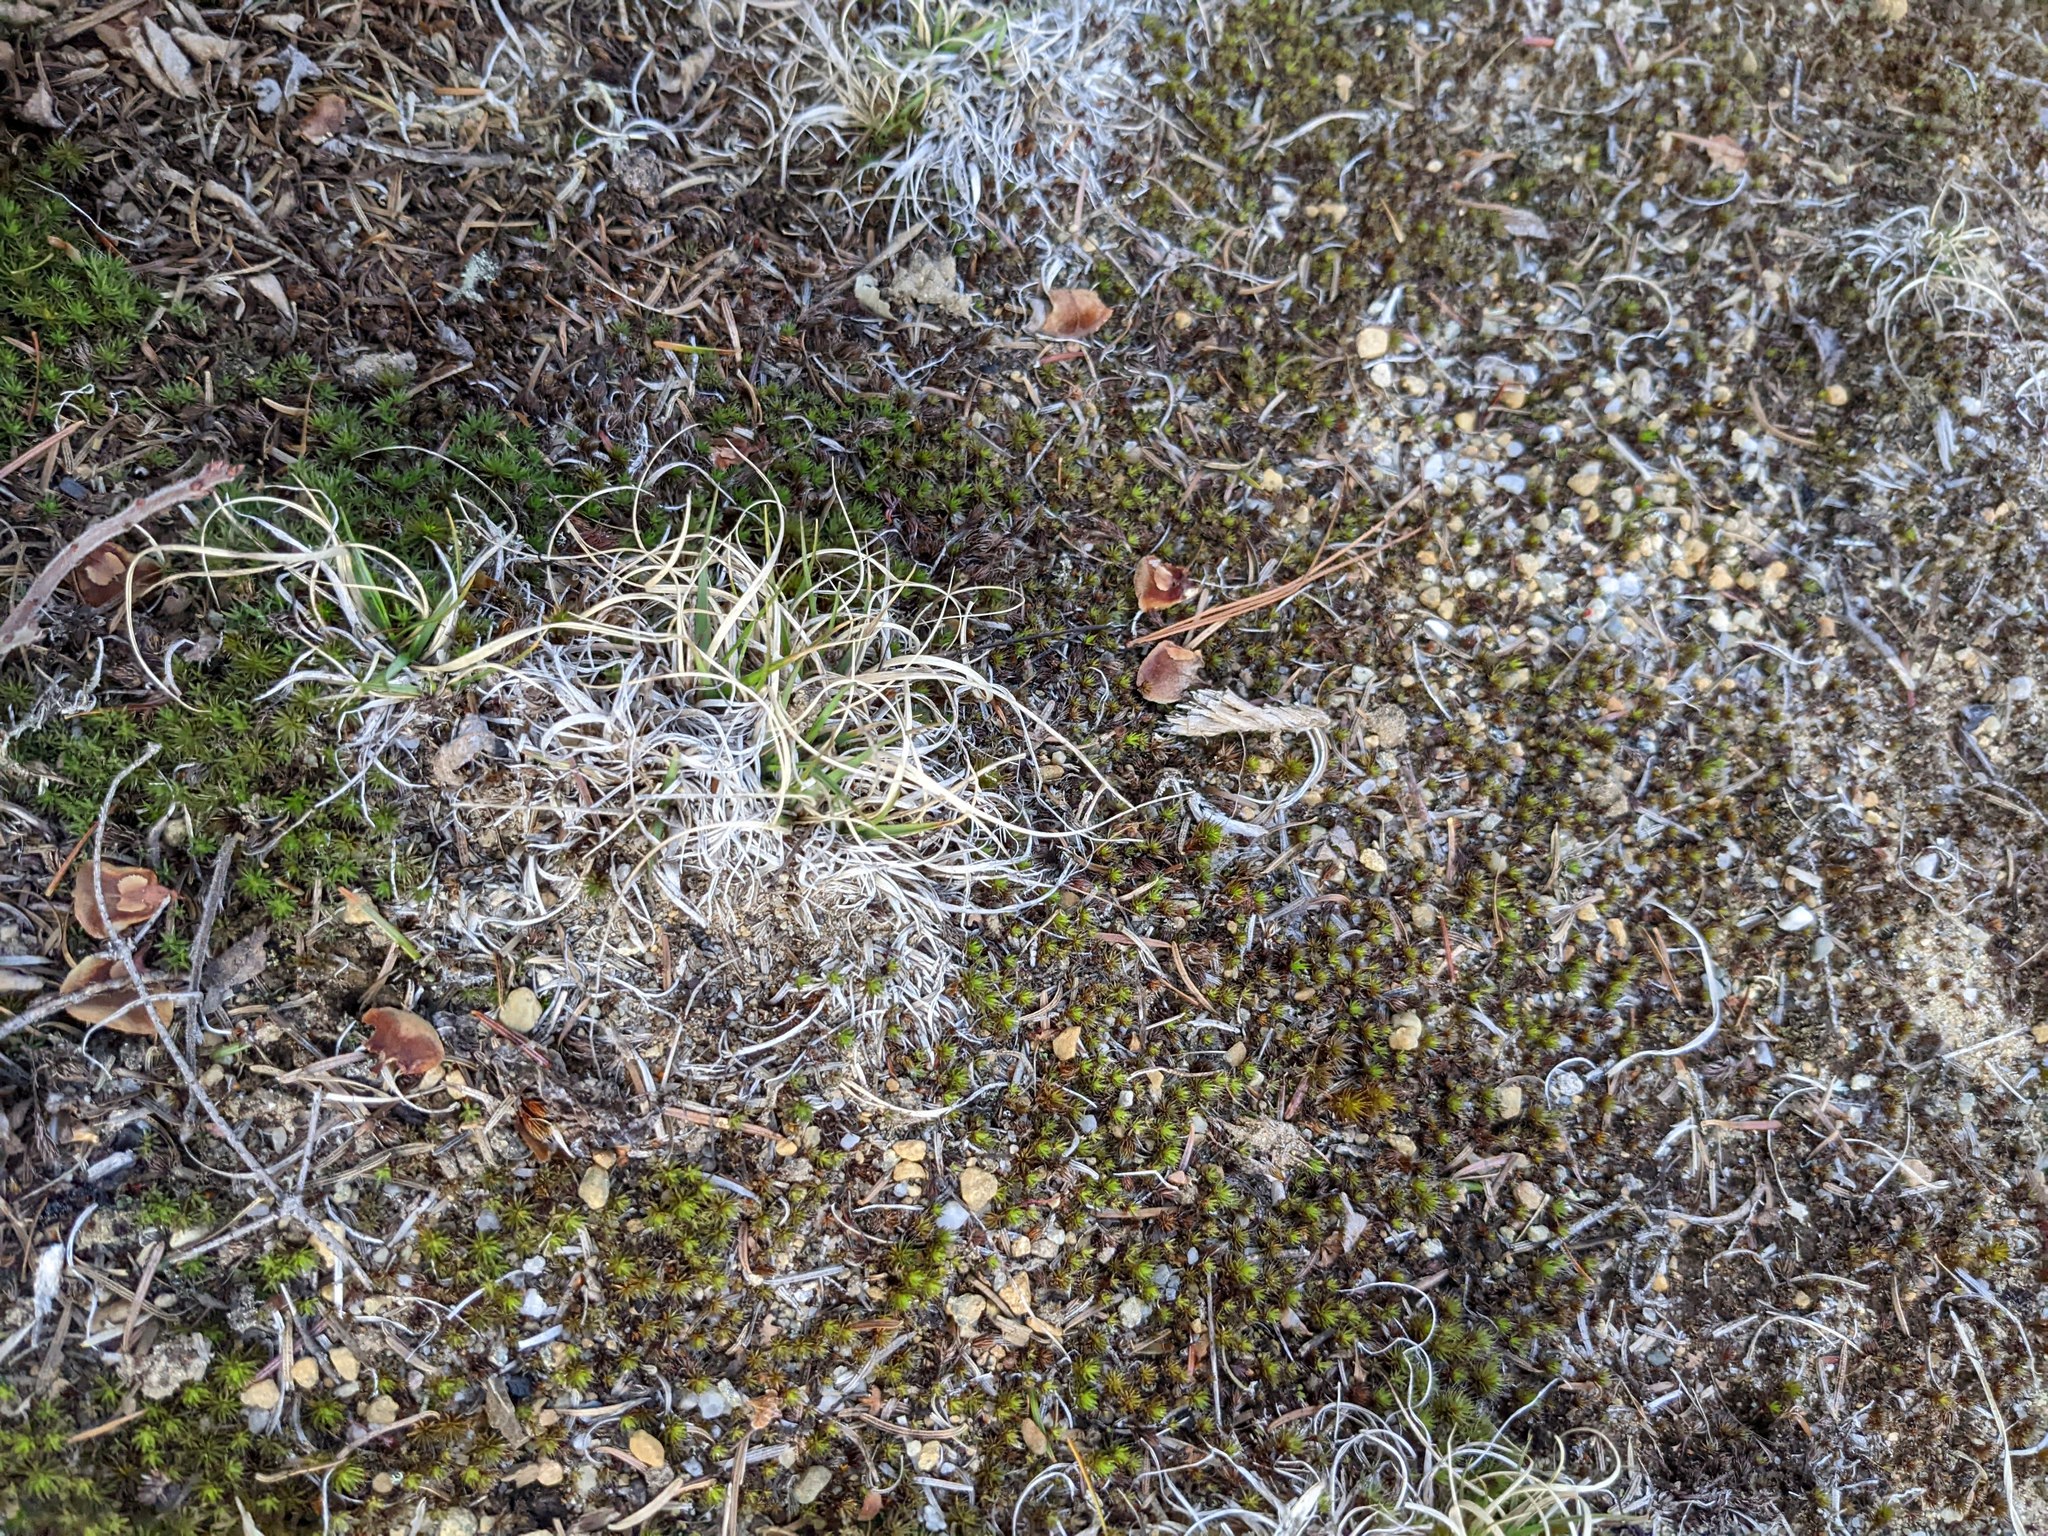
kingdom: Plantae
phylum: Tracheophyta
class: Liliopsida
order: Poales
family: Poaceae
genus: Danthonia
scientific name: Danthonia spicata
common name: Common wild oatgrass
